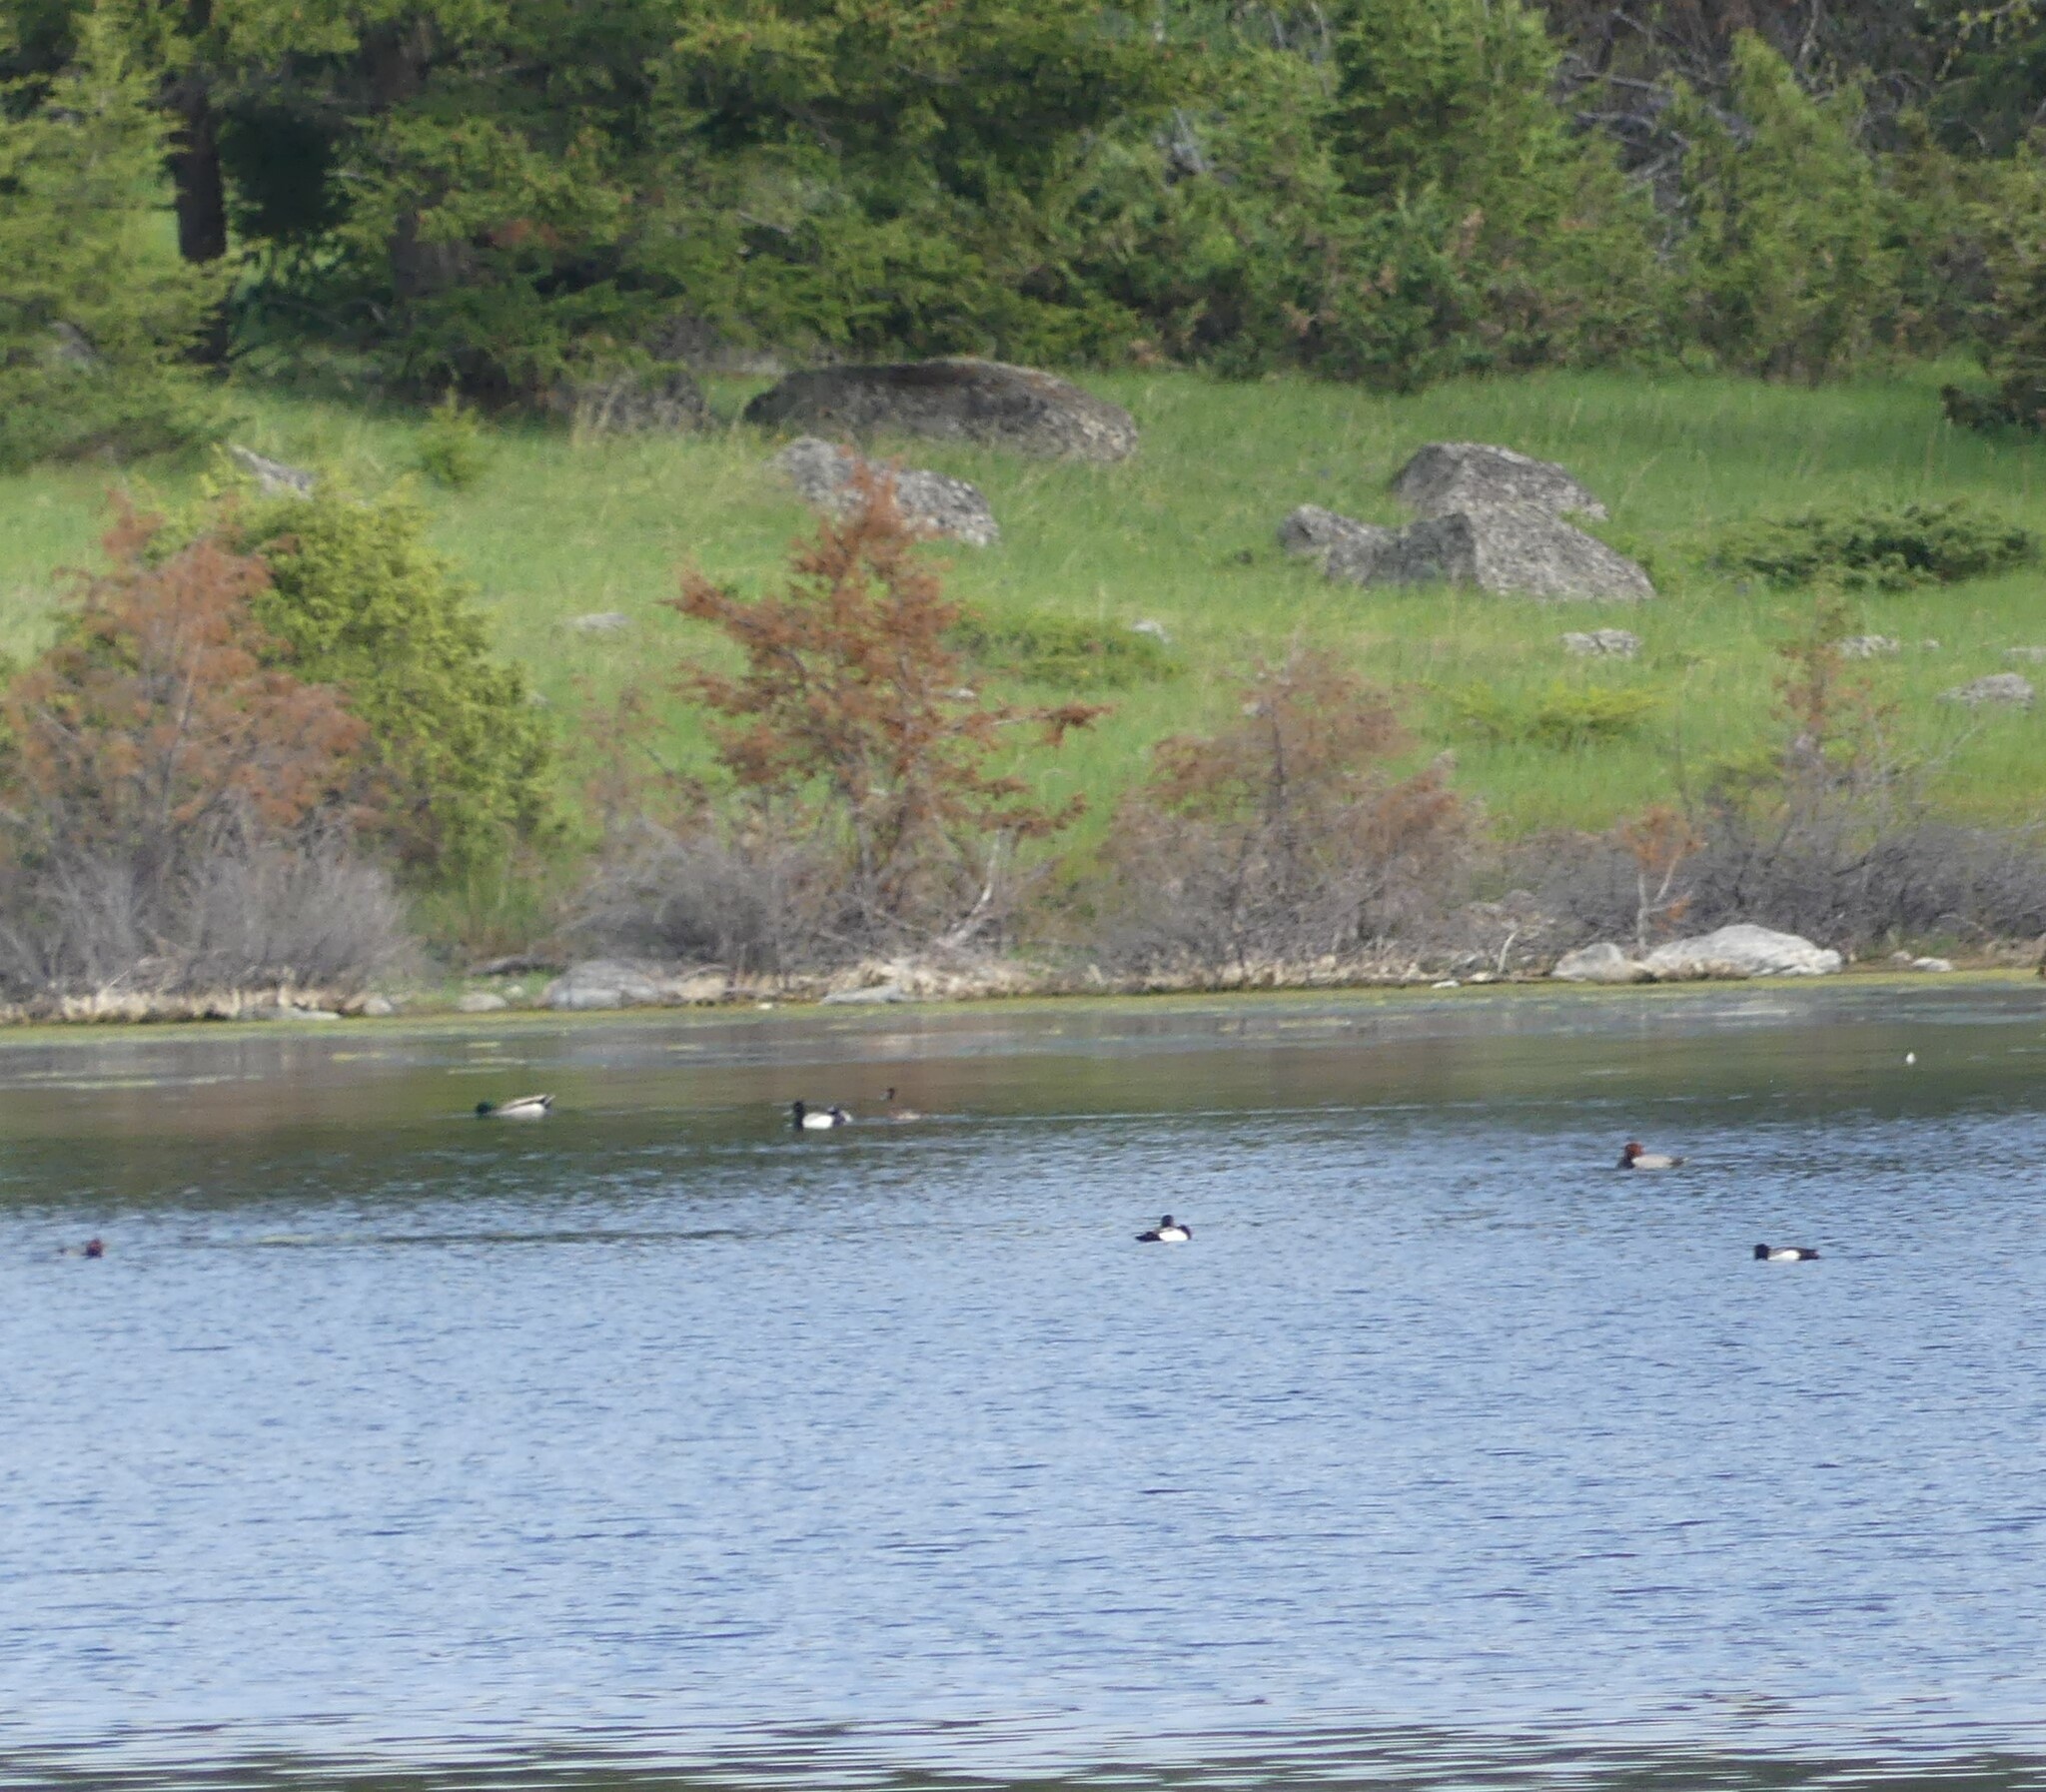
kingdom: Animalia
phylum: Chordata
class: Aves
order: Anseriformes
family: Anatidae
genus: Aythya
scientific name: Aythya americana
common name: Redhead
